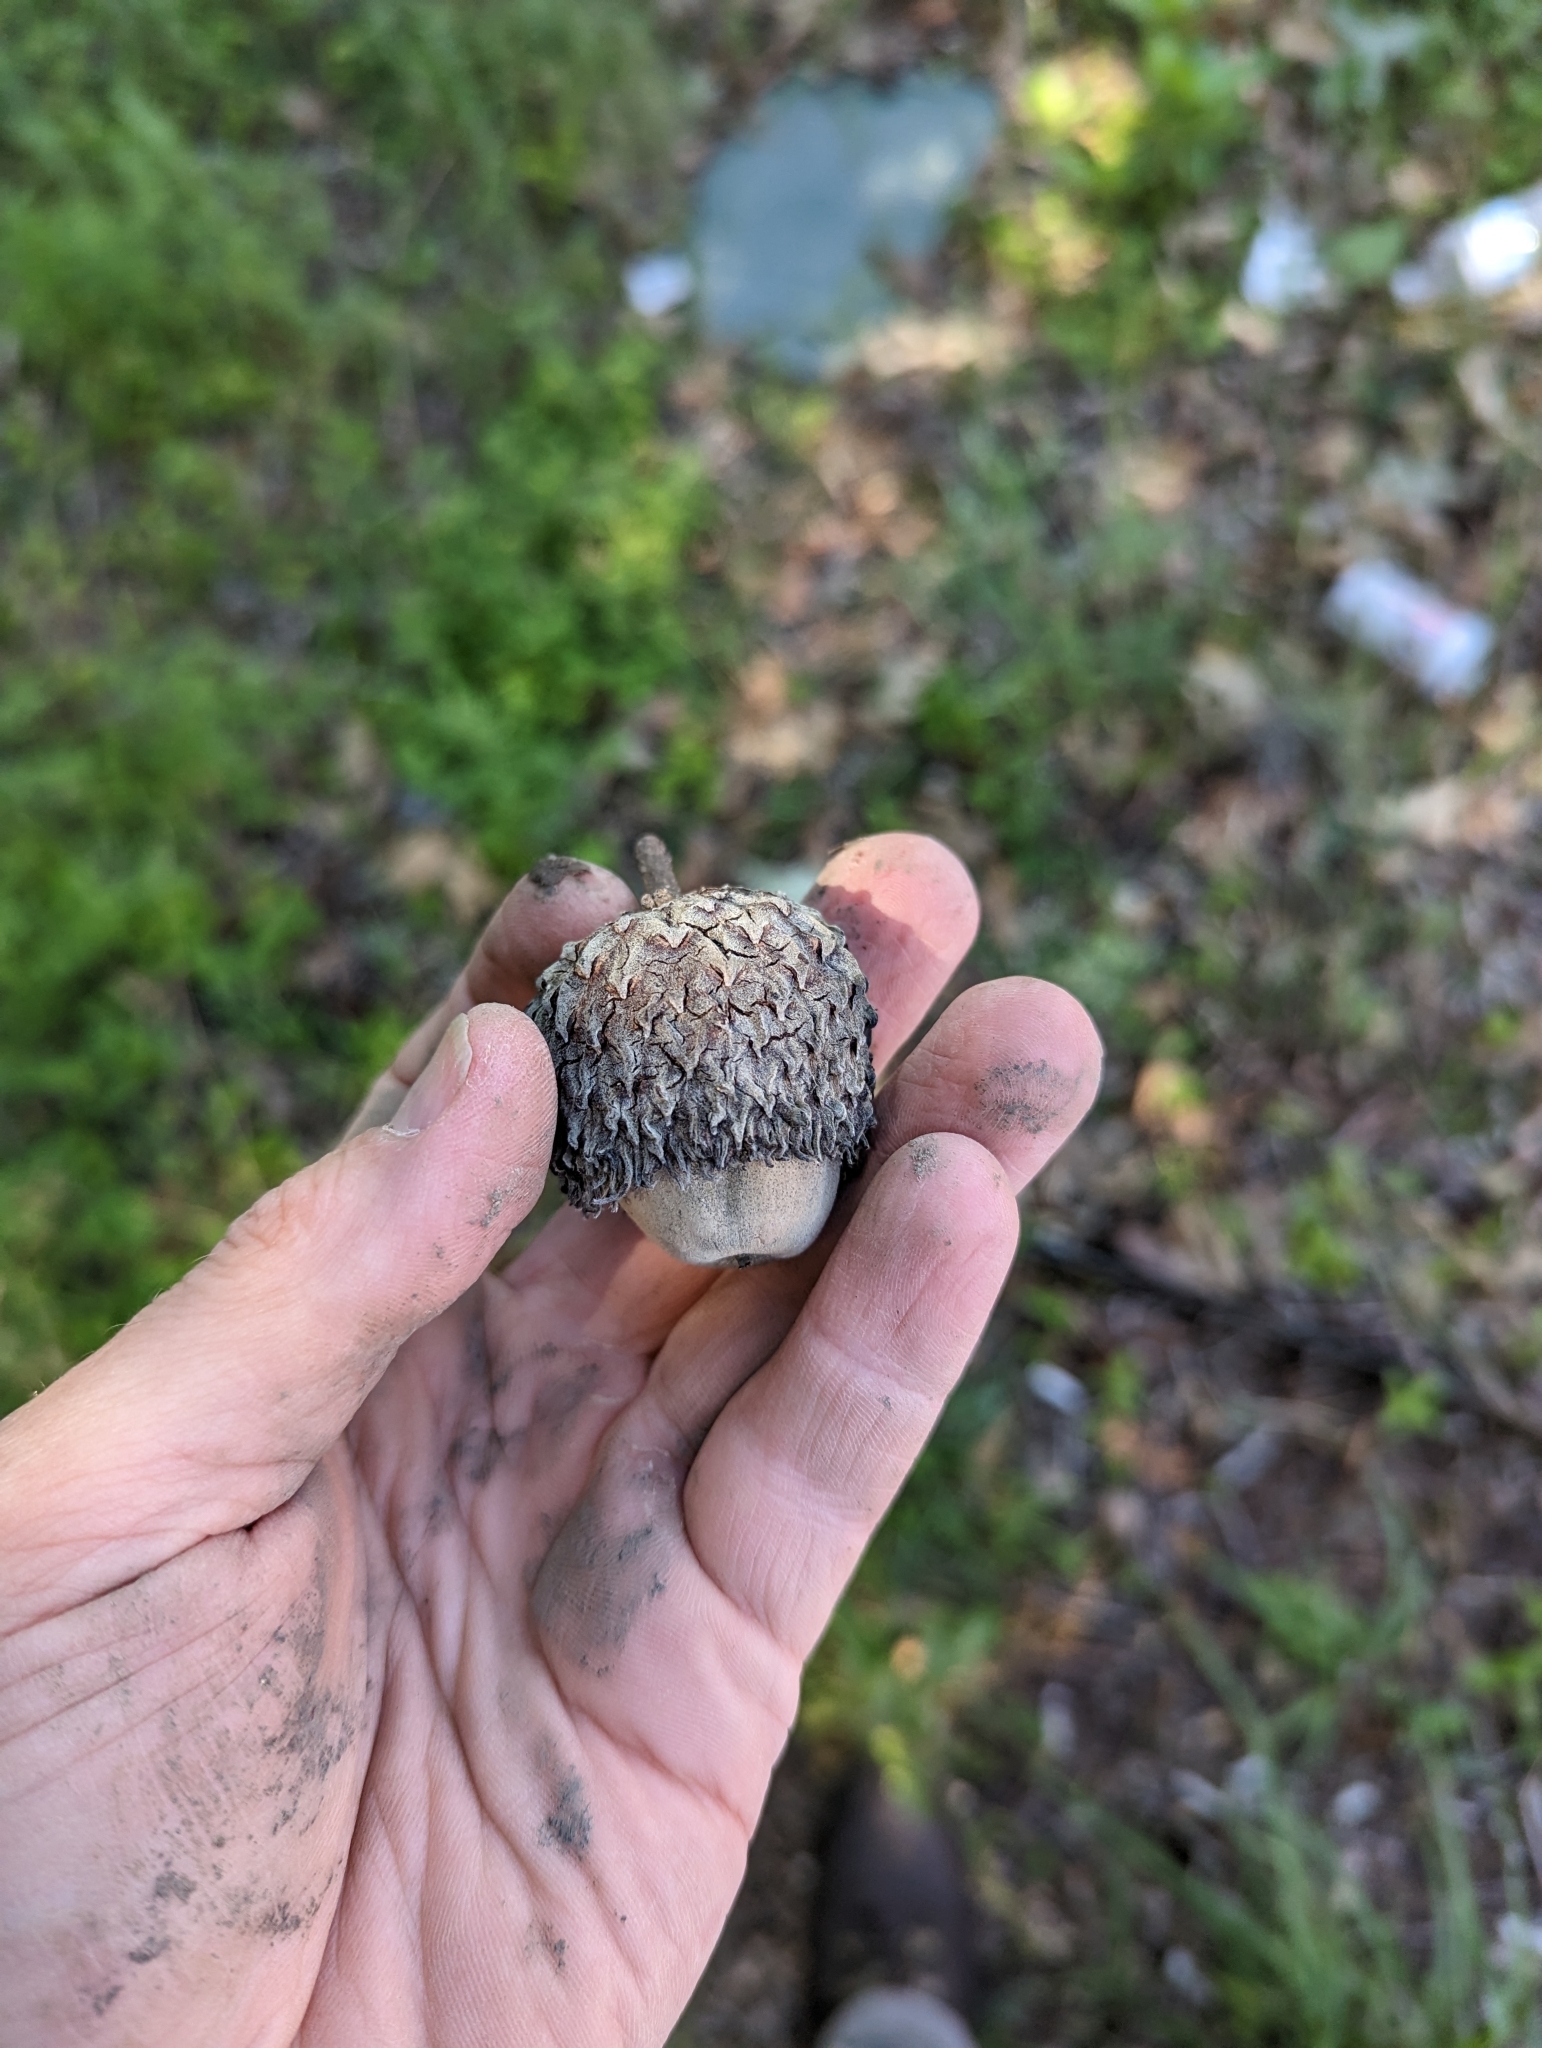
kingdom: Plantae
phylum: Tracheophyta
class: Magnoliopsida
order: Fagales
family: Fagaceae
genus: Quercus
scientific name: Quercus macrocarpa
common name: Bur oak
